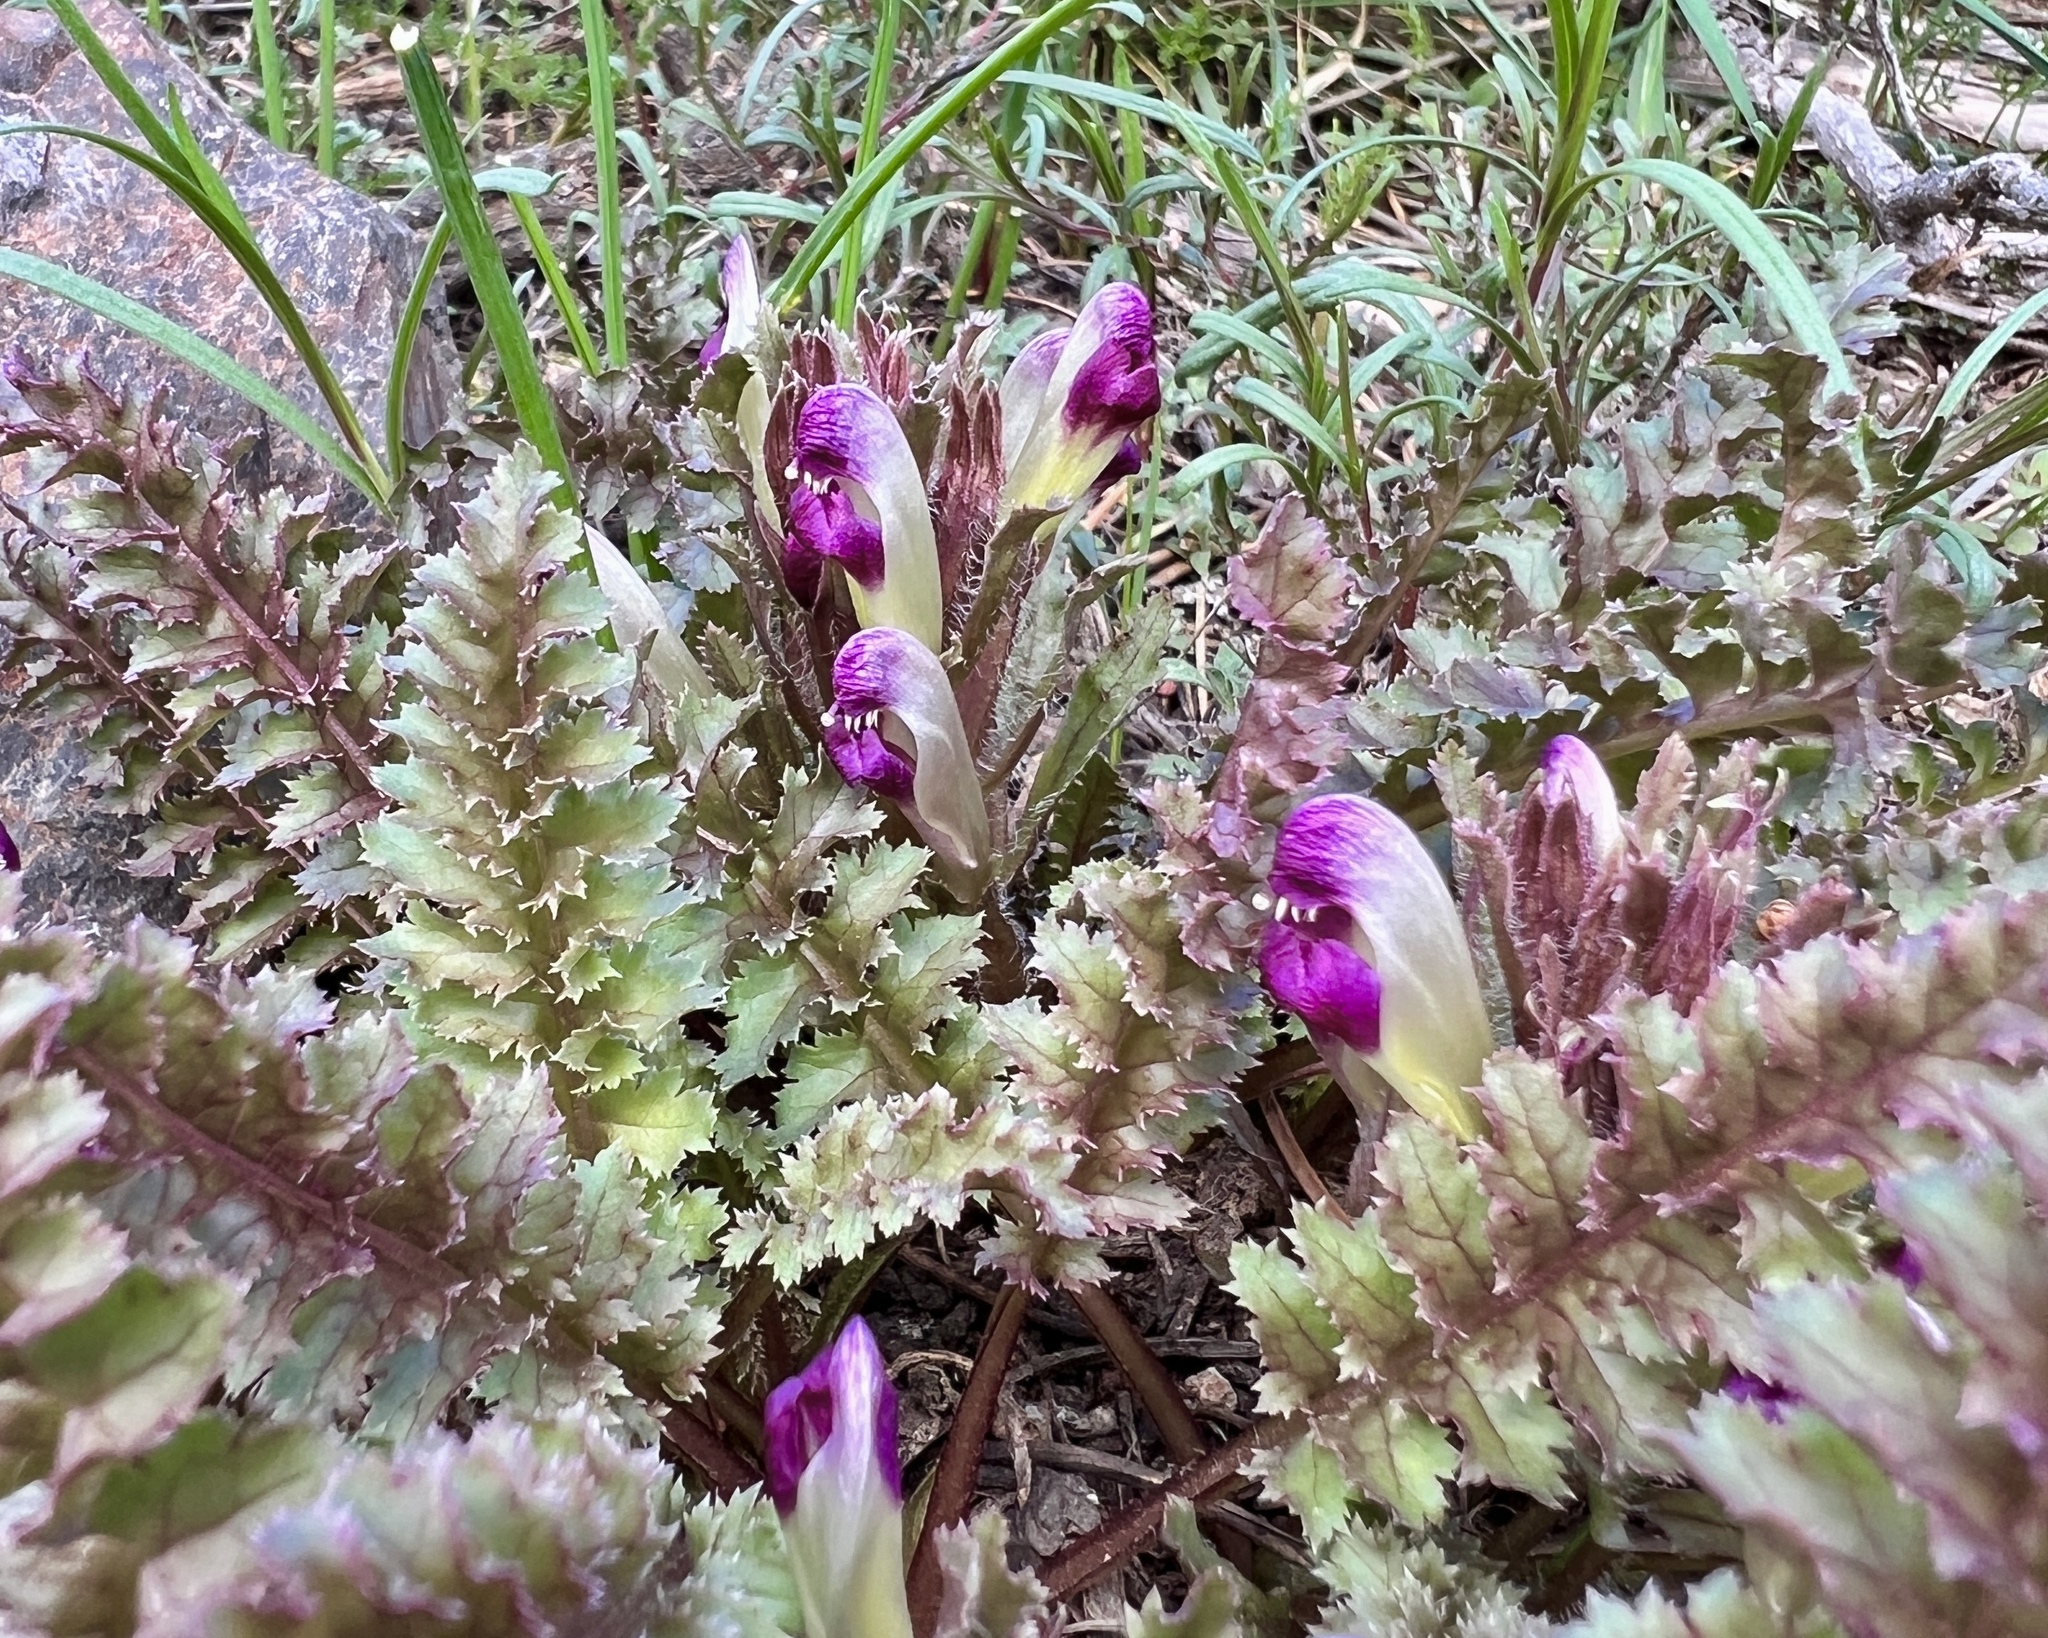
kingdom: Plantae
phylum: Tracheophyta
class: Magnoliopsida
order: Lamiales
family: Orobanchaceae
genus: Pedicularis
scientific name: Pedicularis centranthera
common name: Dwarf lousewort
